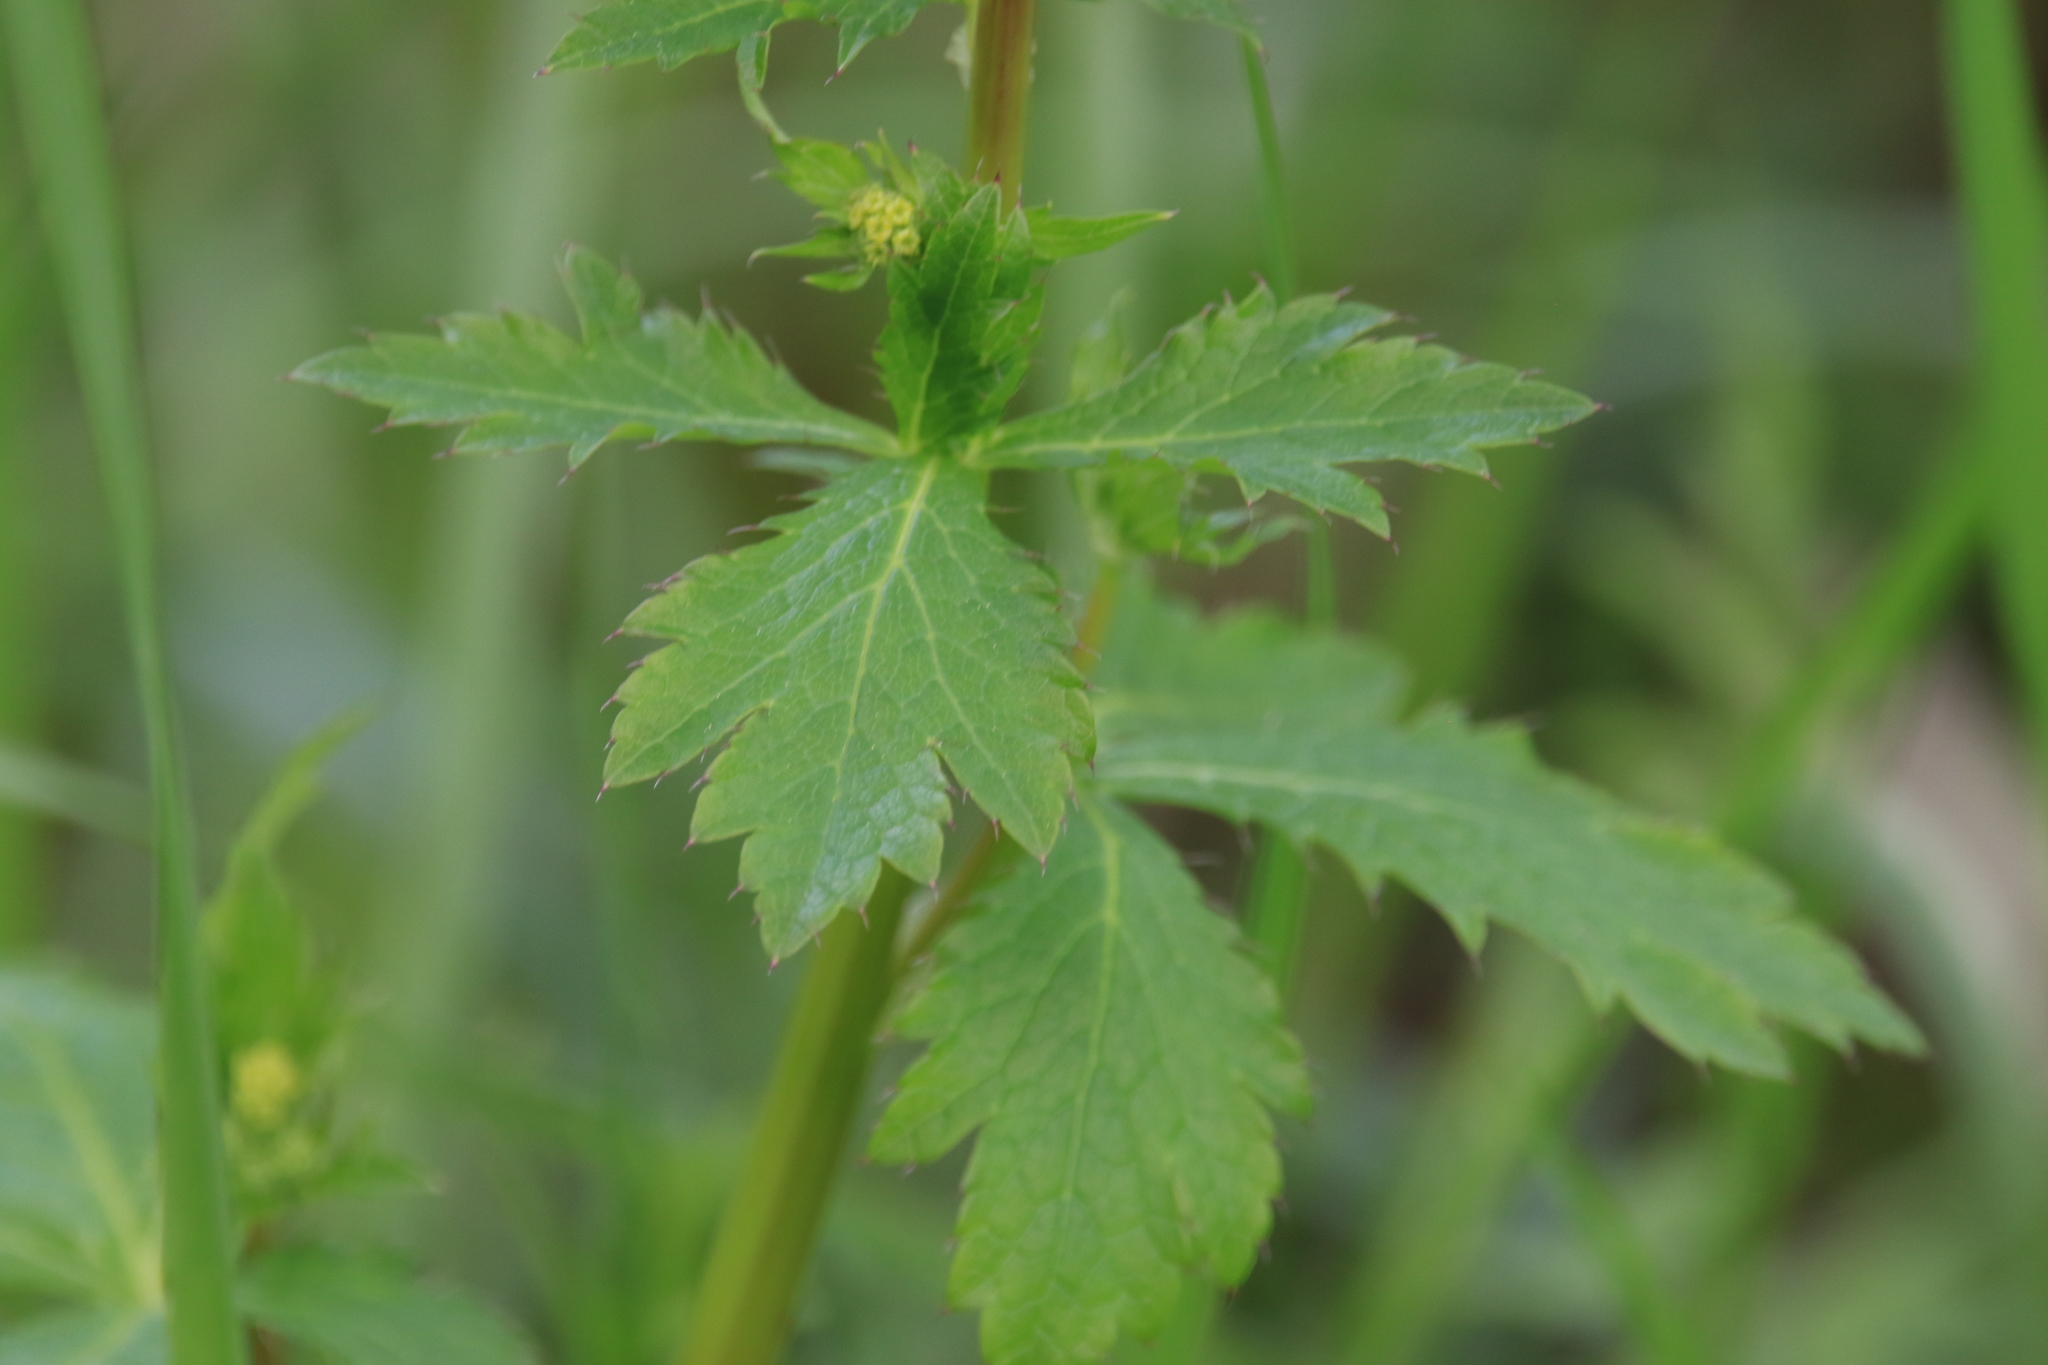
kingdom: Plantae
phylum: Tracheophyta
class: Magnoliopsida
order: Apiales
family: Apiaceae
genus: Sanicula
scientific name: Sanicula crassicaulis
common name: Western snakeroot
